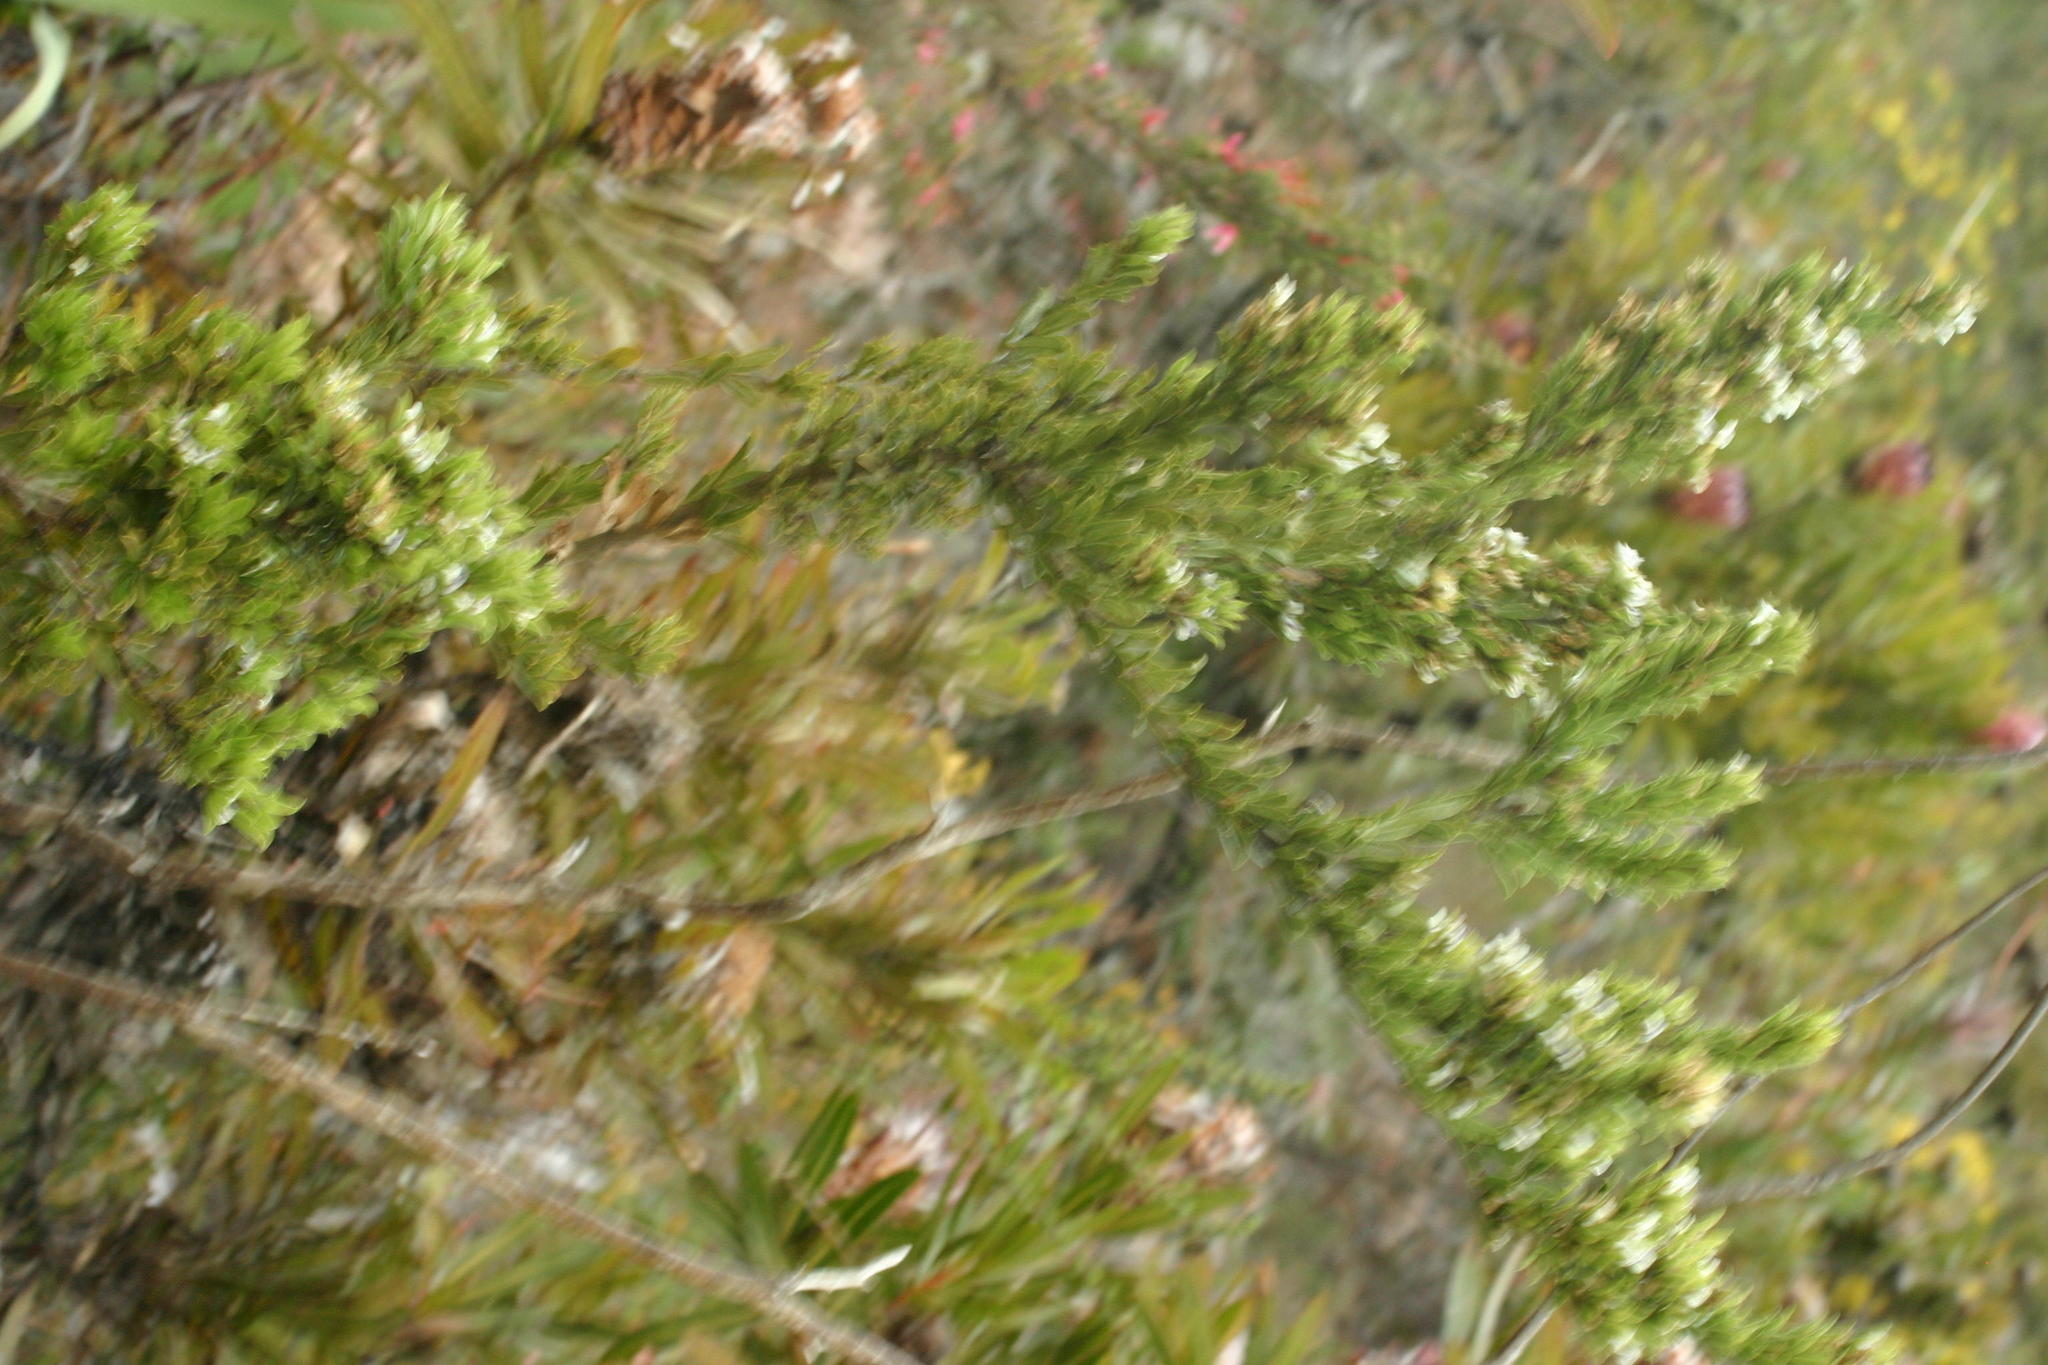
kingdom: Plantae
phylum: Tracheophyta
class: Magnoliopsida
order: Fabales
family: Fabaceae
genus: Psoralea
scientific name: Psoralea prodiens
